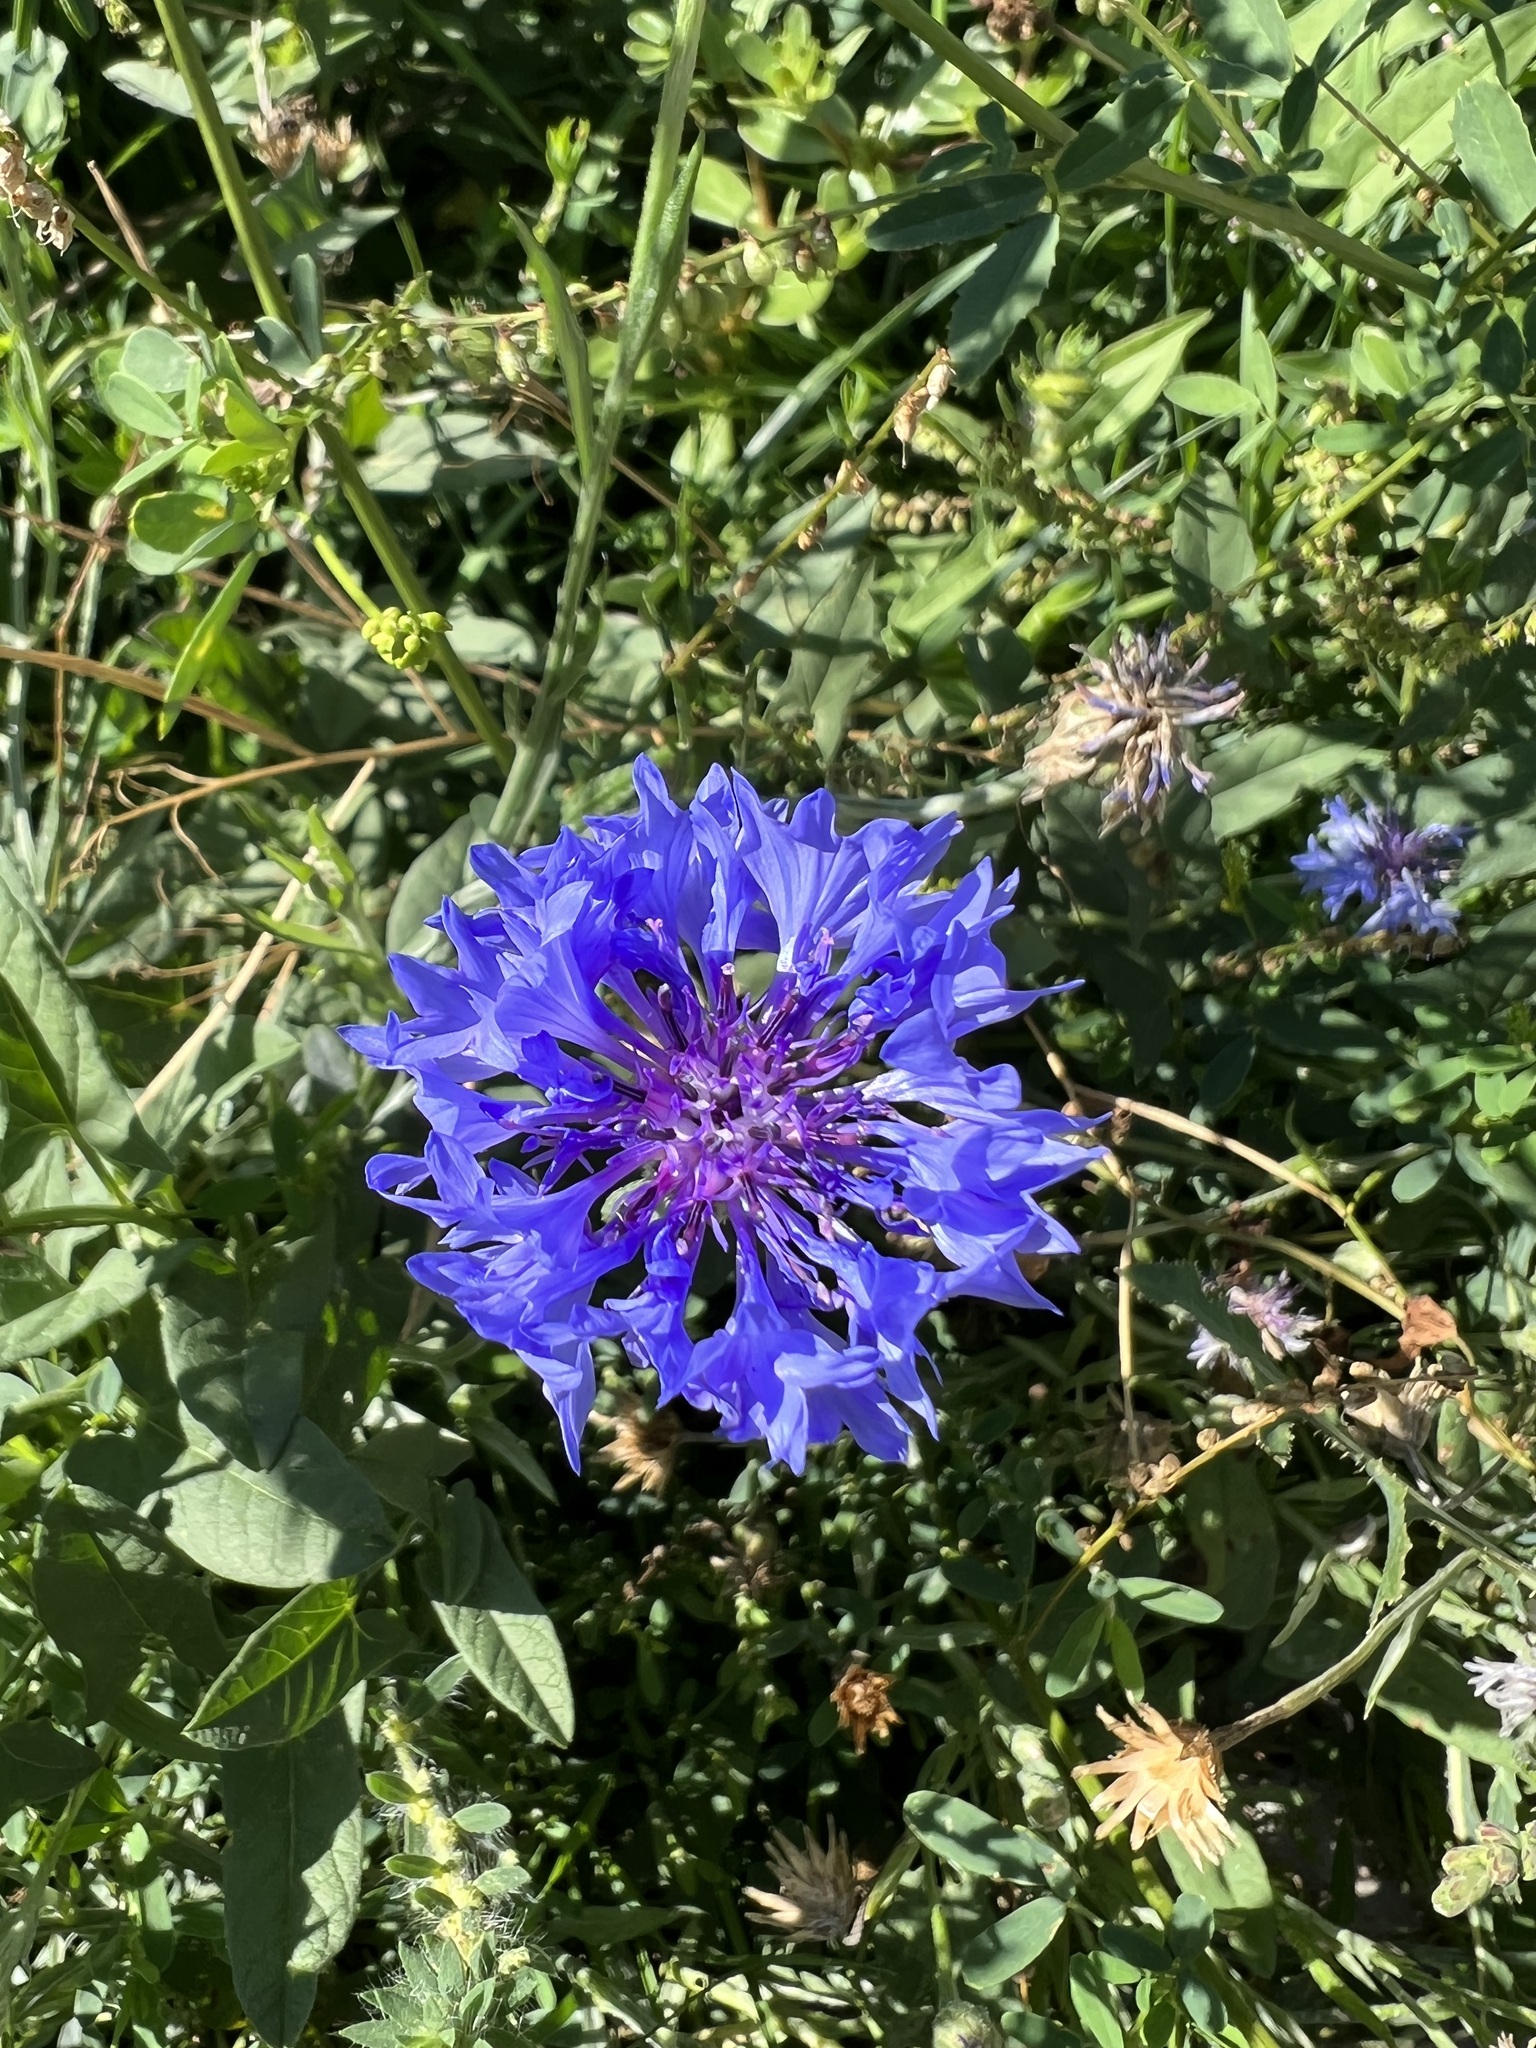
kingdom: Plantae
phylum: Tracheophyta
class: Magnoliopsida
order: Asterales
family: Asteraceae
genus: Centaurea
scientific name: Centaurea cyanus
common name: Cornflower
